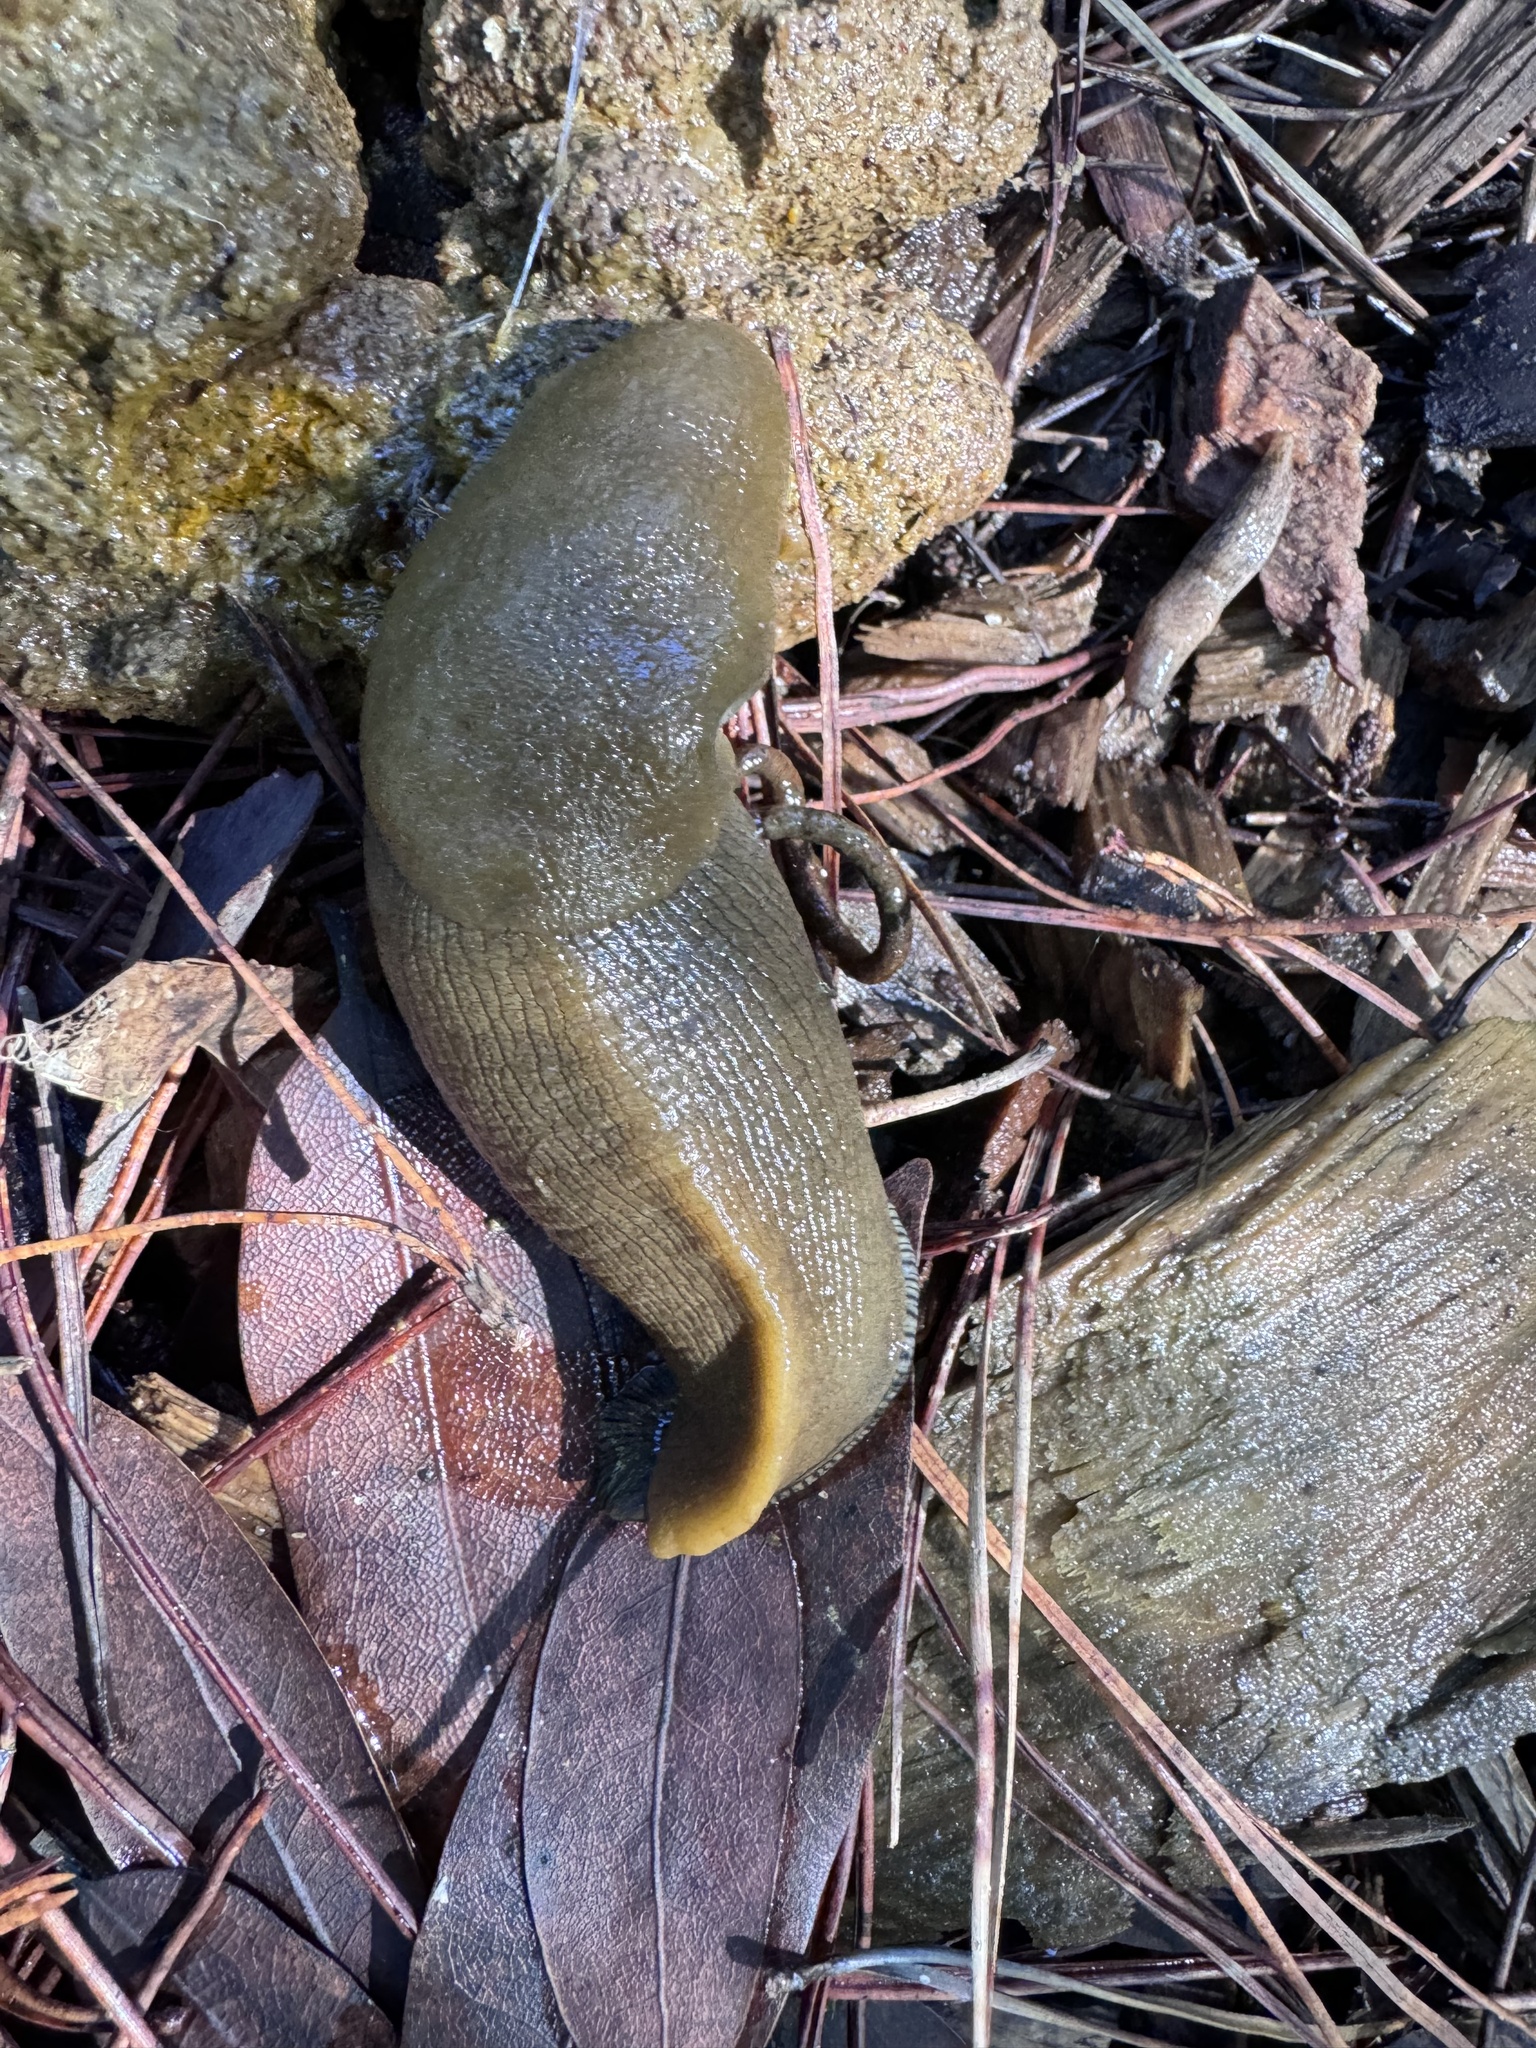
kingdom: Animalia
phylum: Mollusca
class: Gastropoda
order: Stylommatophora
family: Ariolimacidae
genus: Ariolimax
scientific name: Ariolimax buttoni
